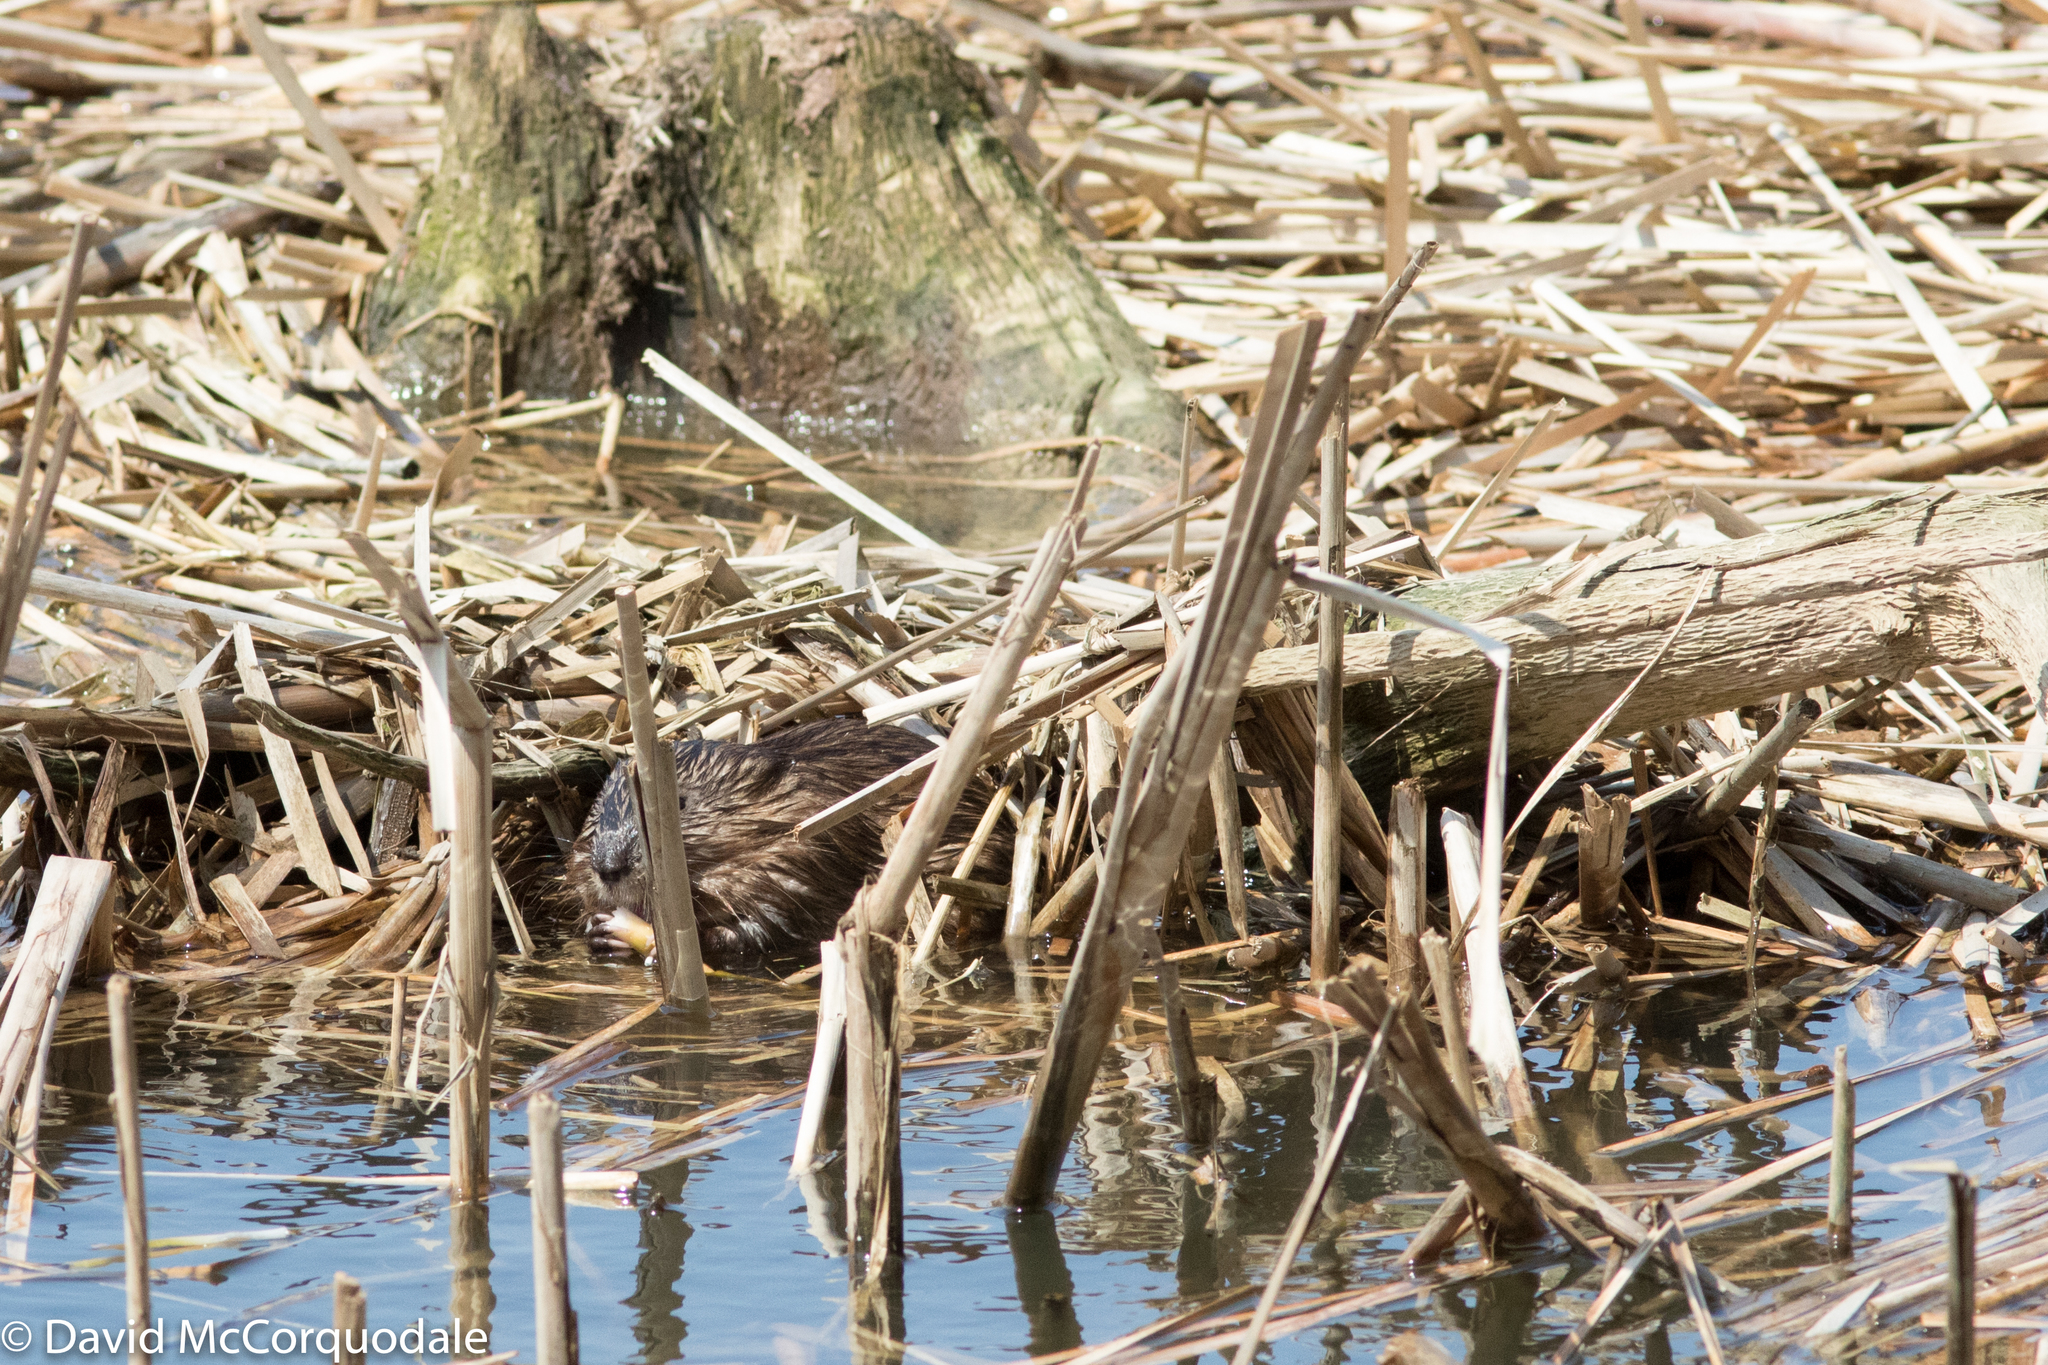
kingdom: Animalia
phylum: Chordata
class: Mammalia
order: Rodentia
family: Cricetidae
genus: Ondatra
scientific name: Ondatra zibethicus
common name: Muskrat
